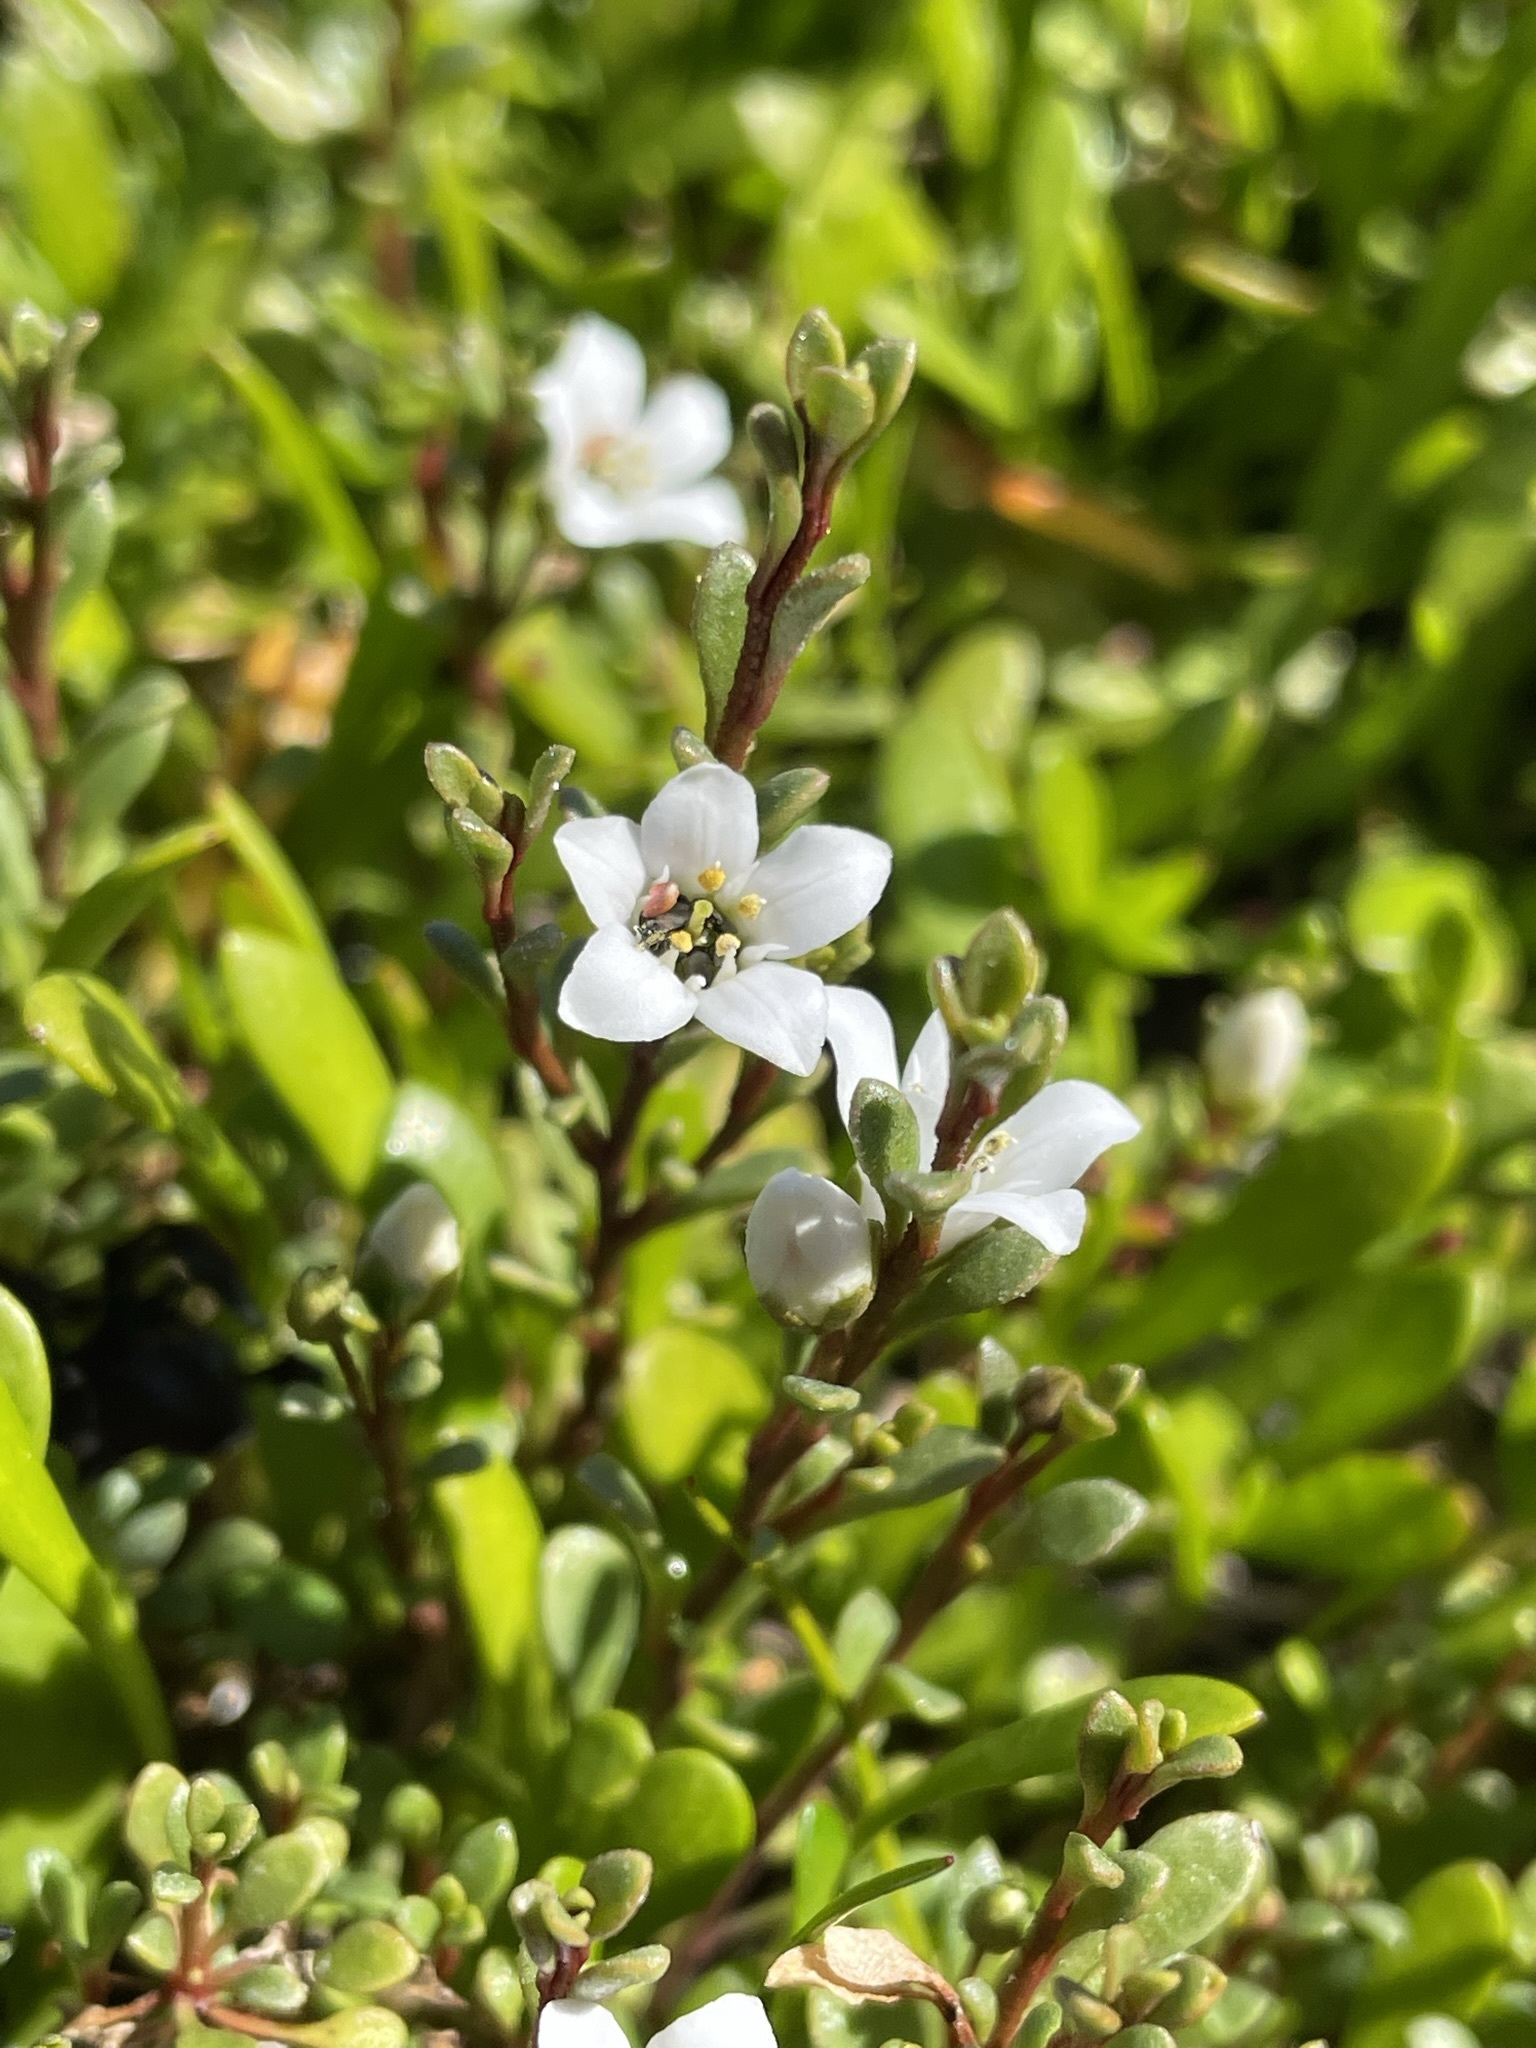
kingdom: Plantae
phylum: Tracheophyta
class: Magnoliopsida
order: Ericales
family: Primulaceae
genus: Samolus
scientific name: Samolus repens
